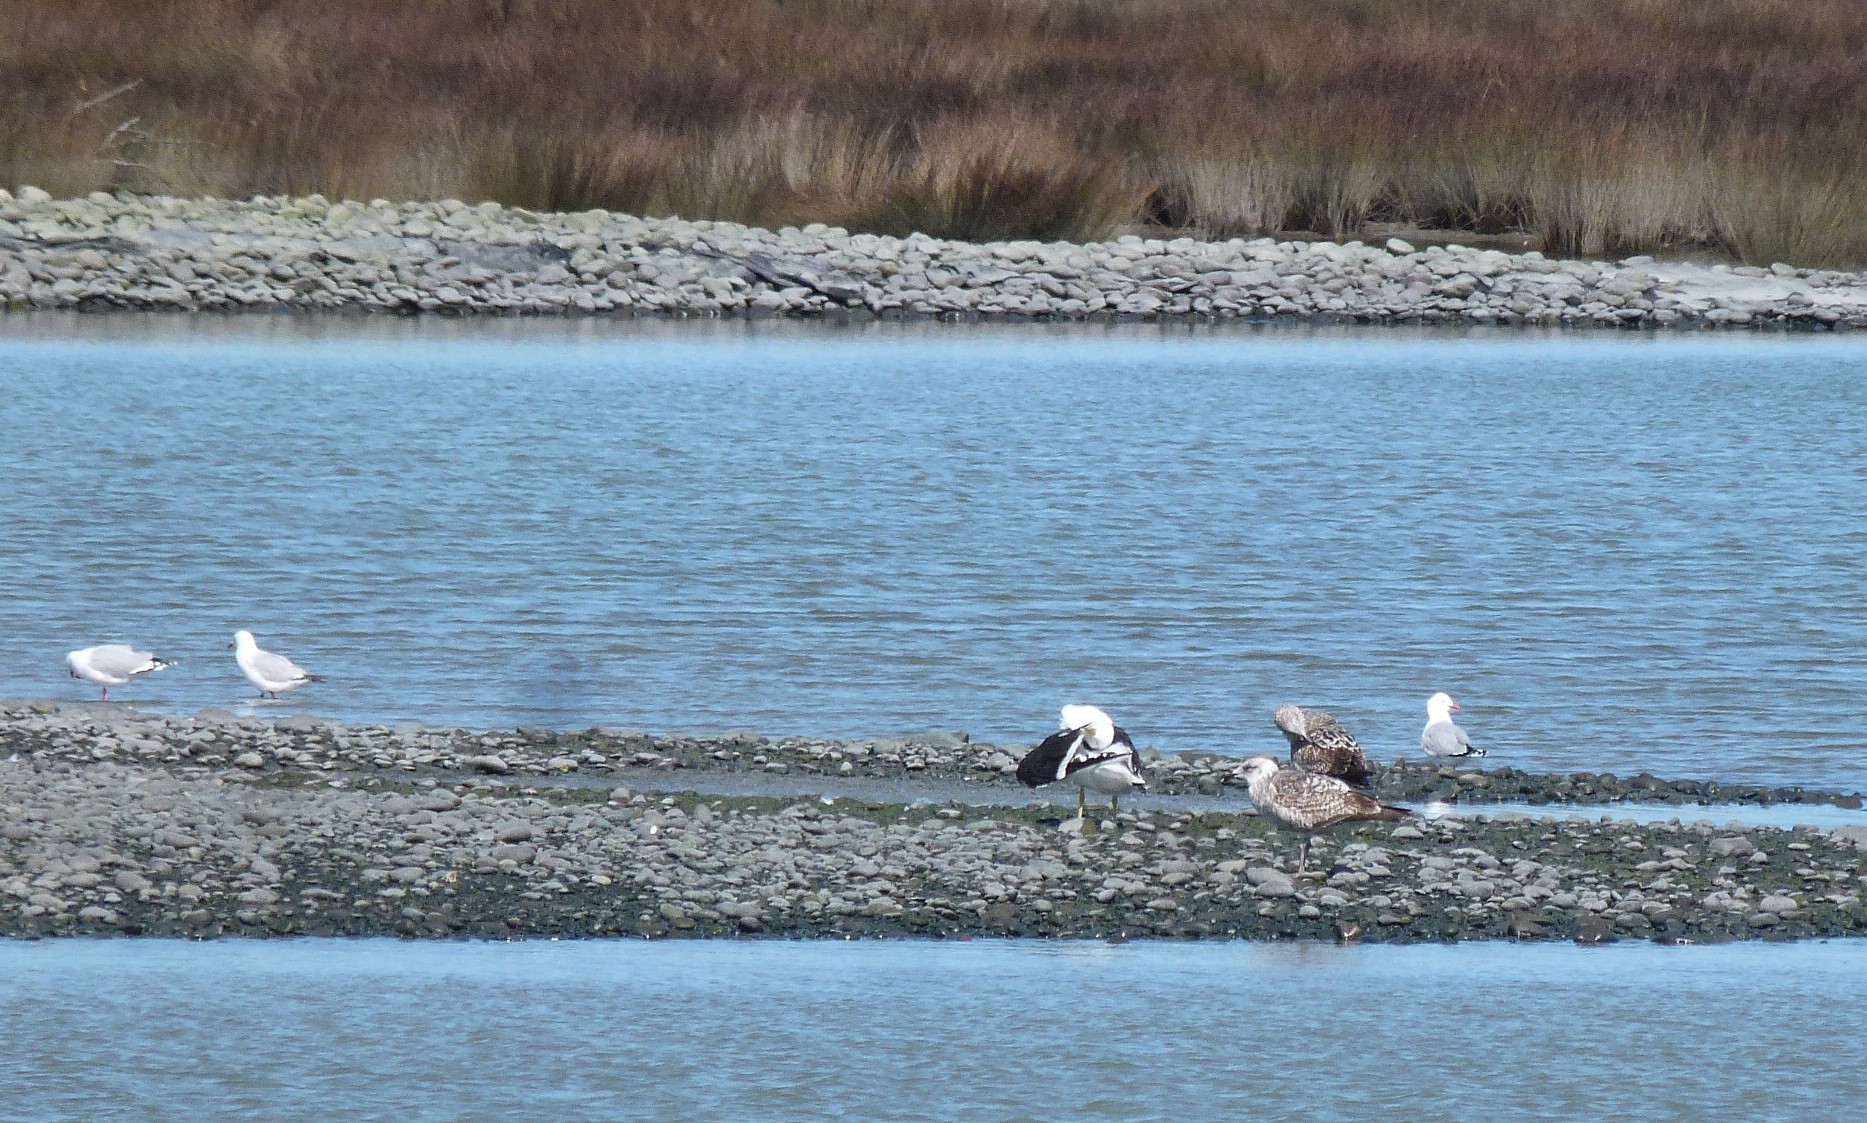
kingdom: Animalia
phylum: Chordata
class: Aves
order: Charadriiformes
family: Laridae
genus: Larus
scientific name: Larus dominicanus
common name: Kelp gull
